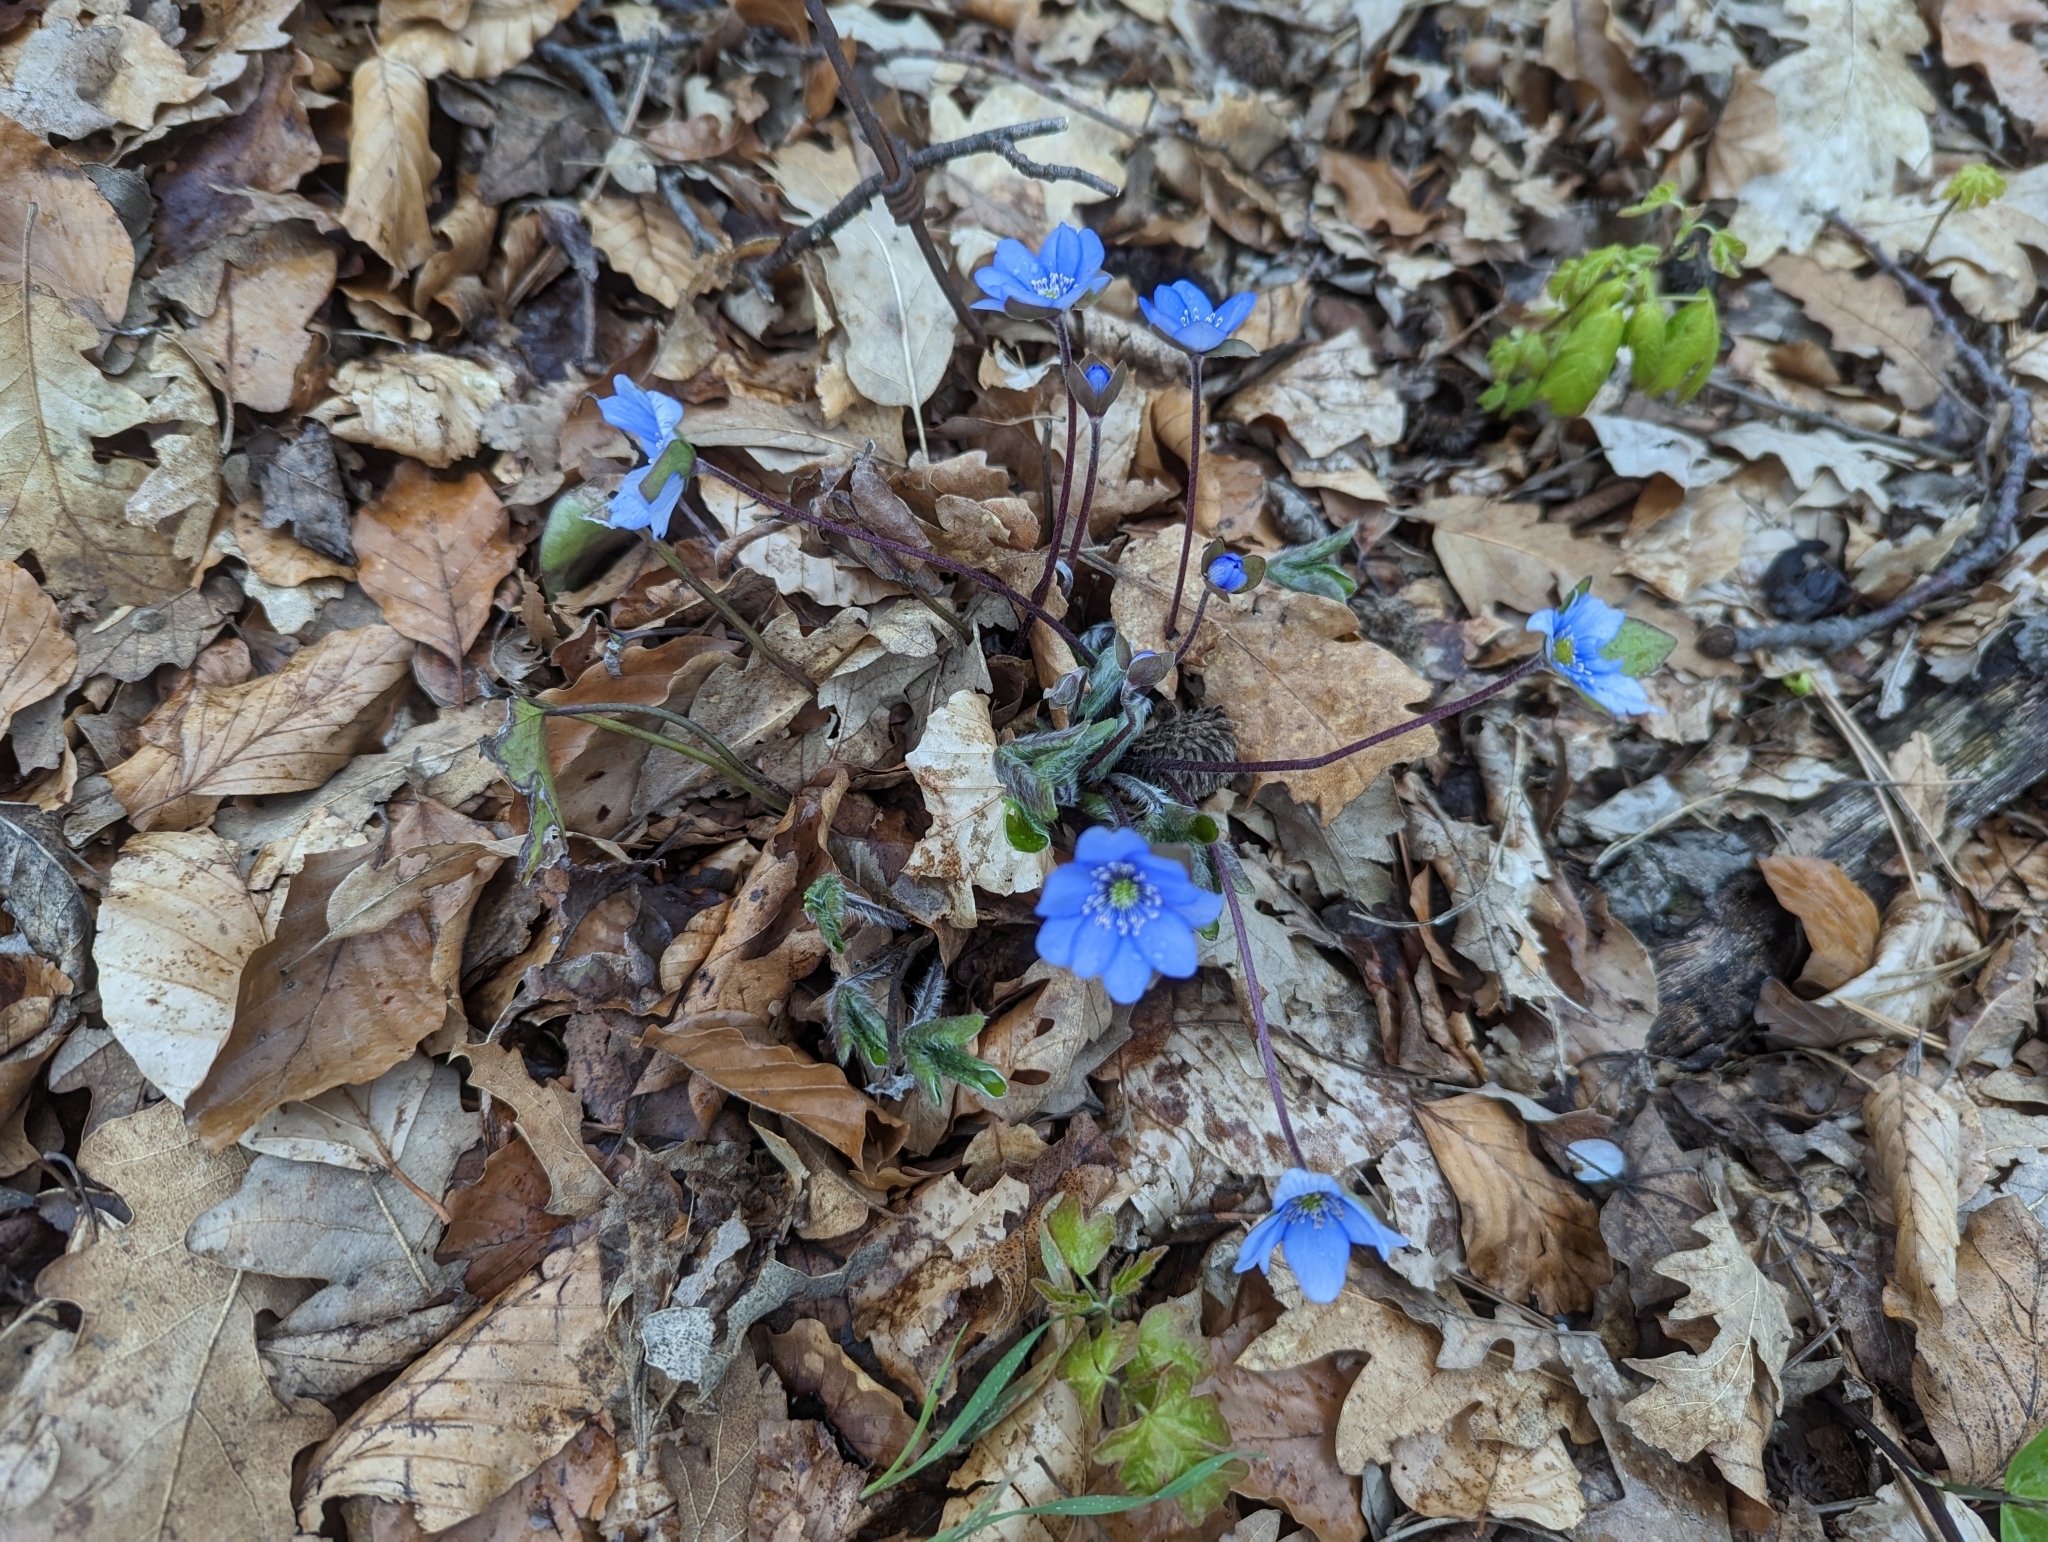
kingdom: Plantae
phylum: Tracheophyta
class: Magnoliopsida
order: Ranunculales
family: Ranunculaceae
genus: Hepatica
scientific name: Hepatica nobilis
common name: Liverleaf
